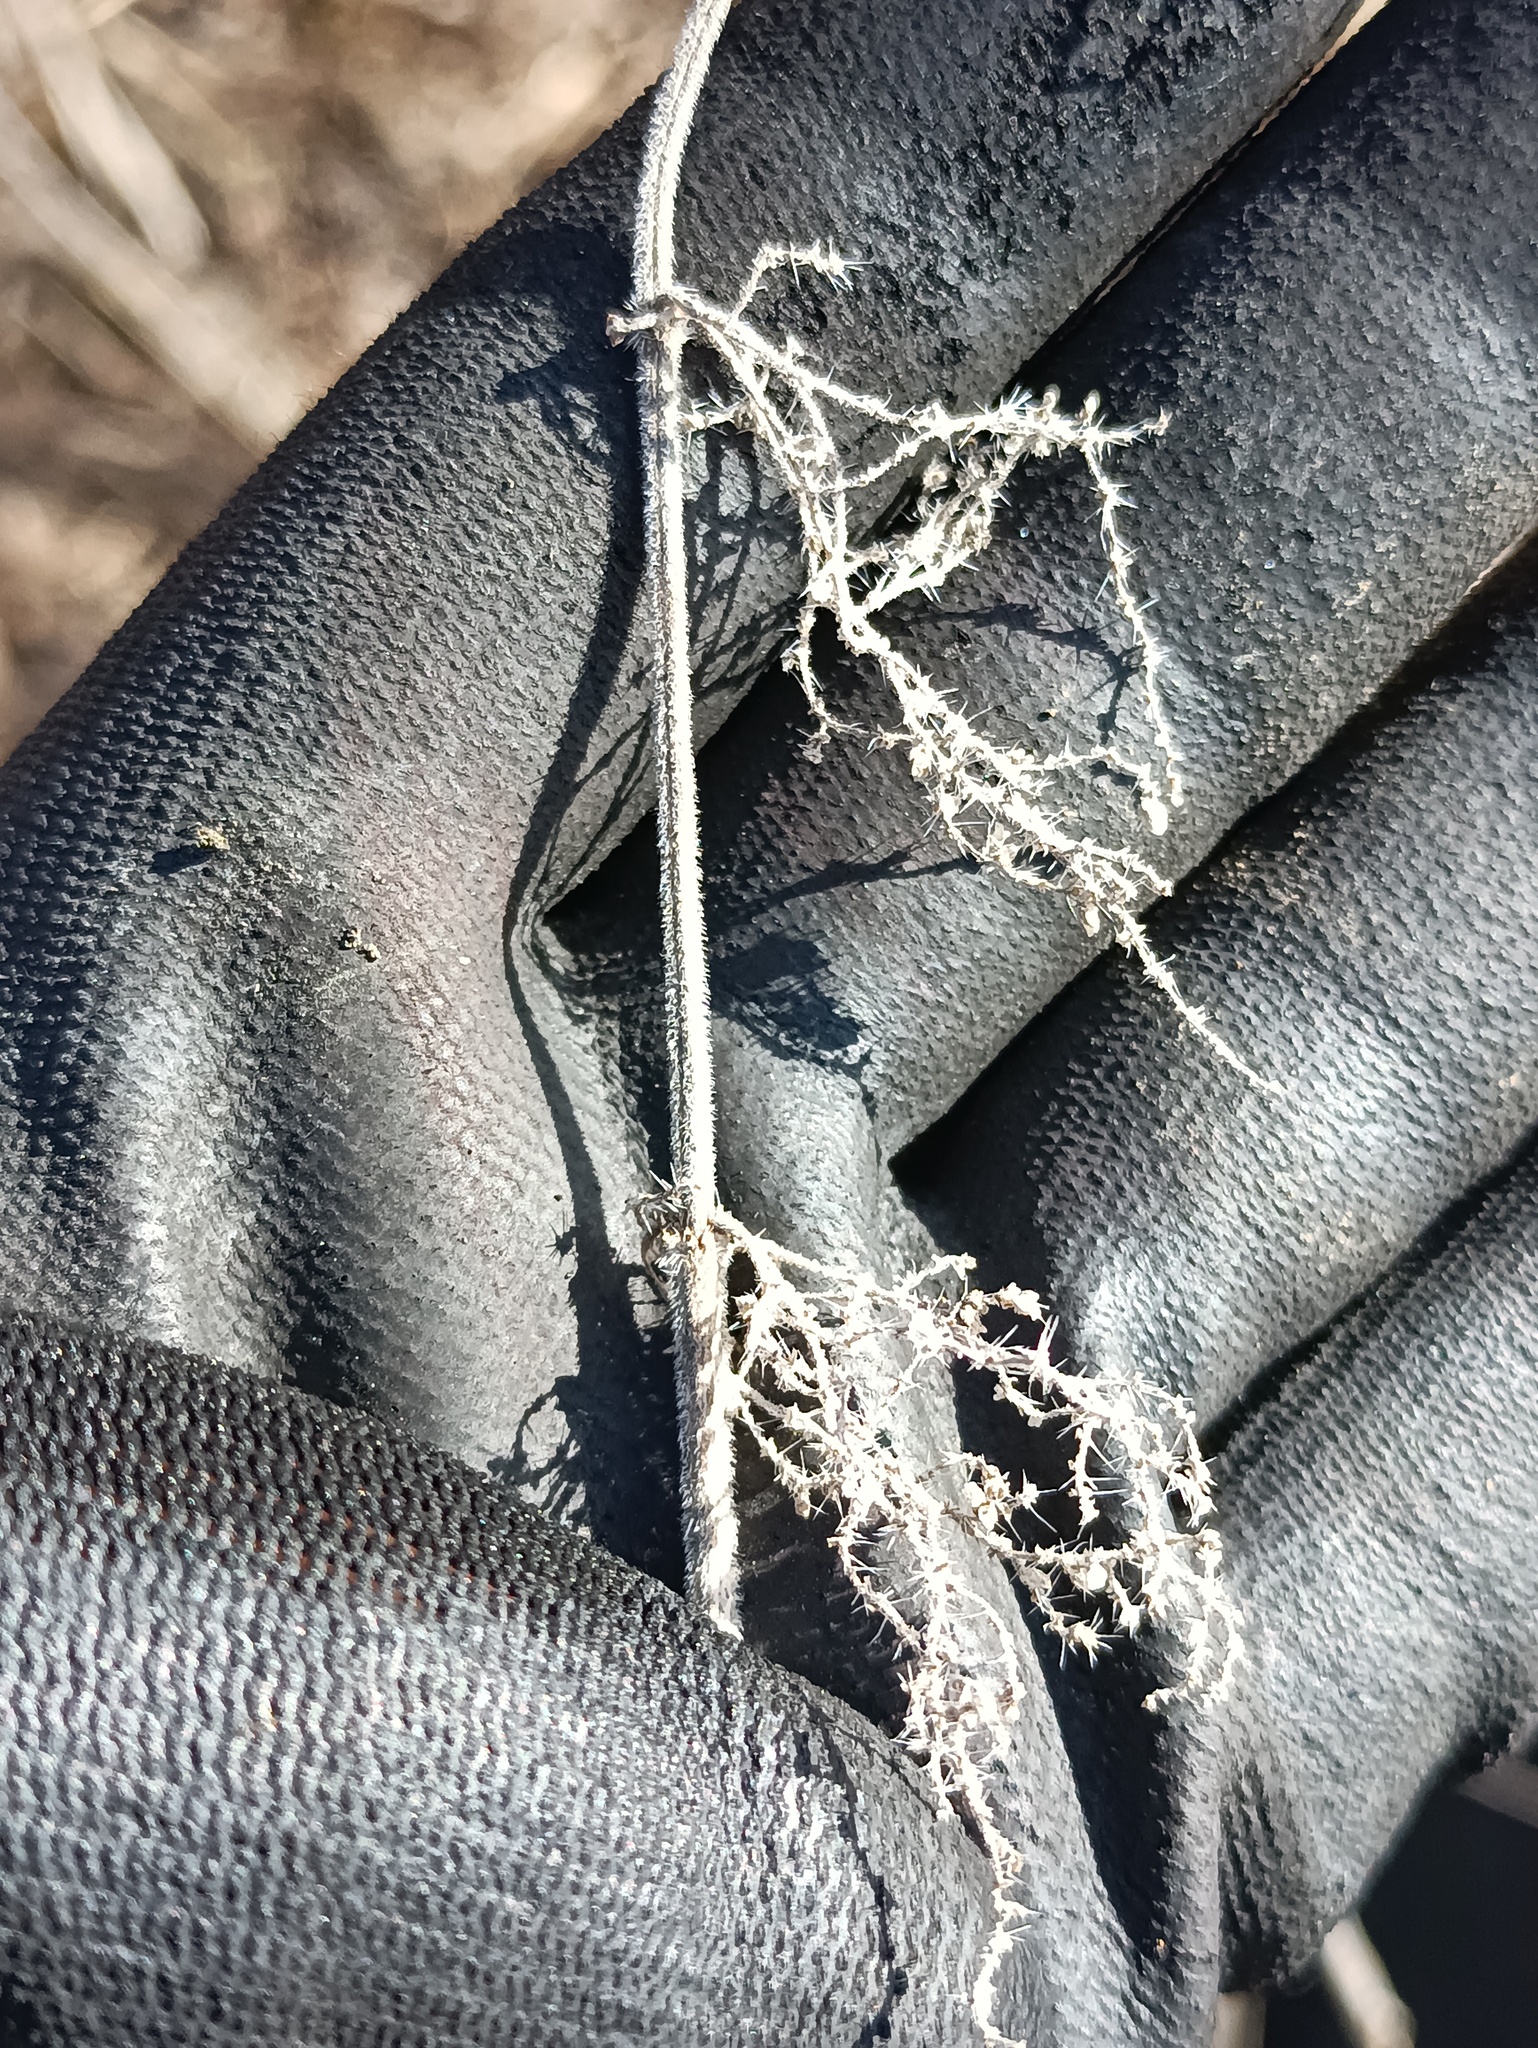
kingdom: Plantae
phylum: Tracheophyta
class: Magnoliopsida
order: Rosales
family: Urticaceae
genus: Urtica
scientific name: Urtica dioica
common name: Common nettle
